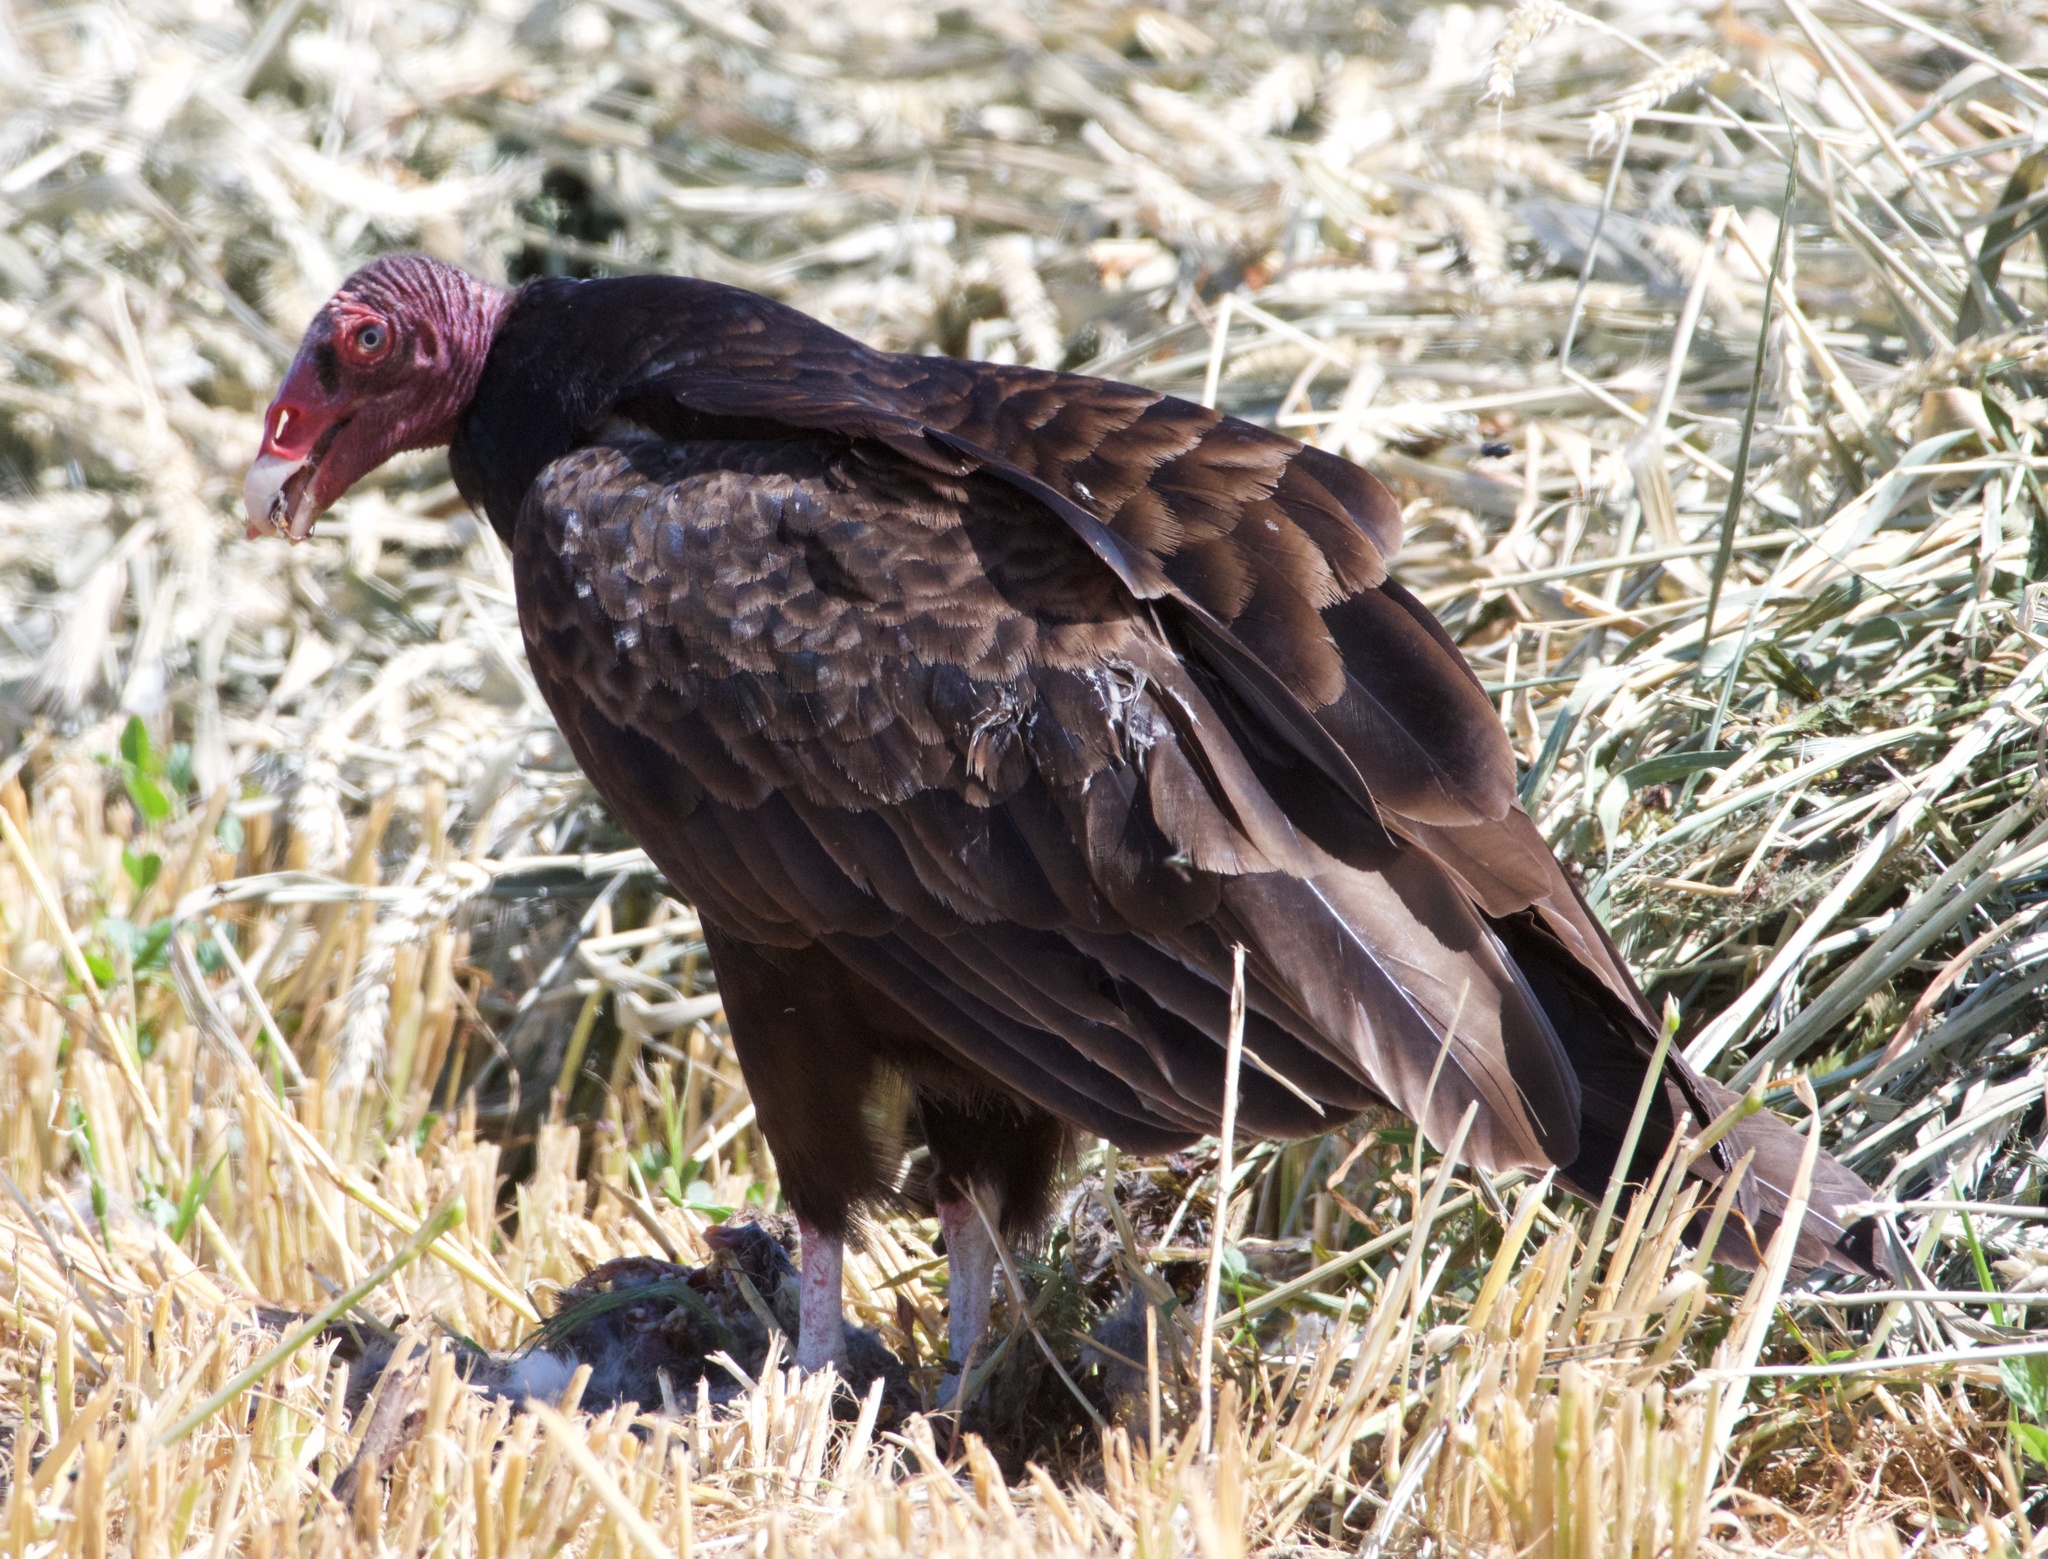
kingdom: Animalia
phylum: Chordata
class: Aves
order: Accipitriformes
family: Cathartidae
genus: Cathartes
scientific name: Cathartes aura
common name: Turkey vulture
